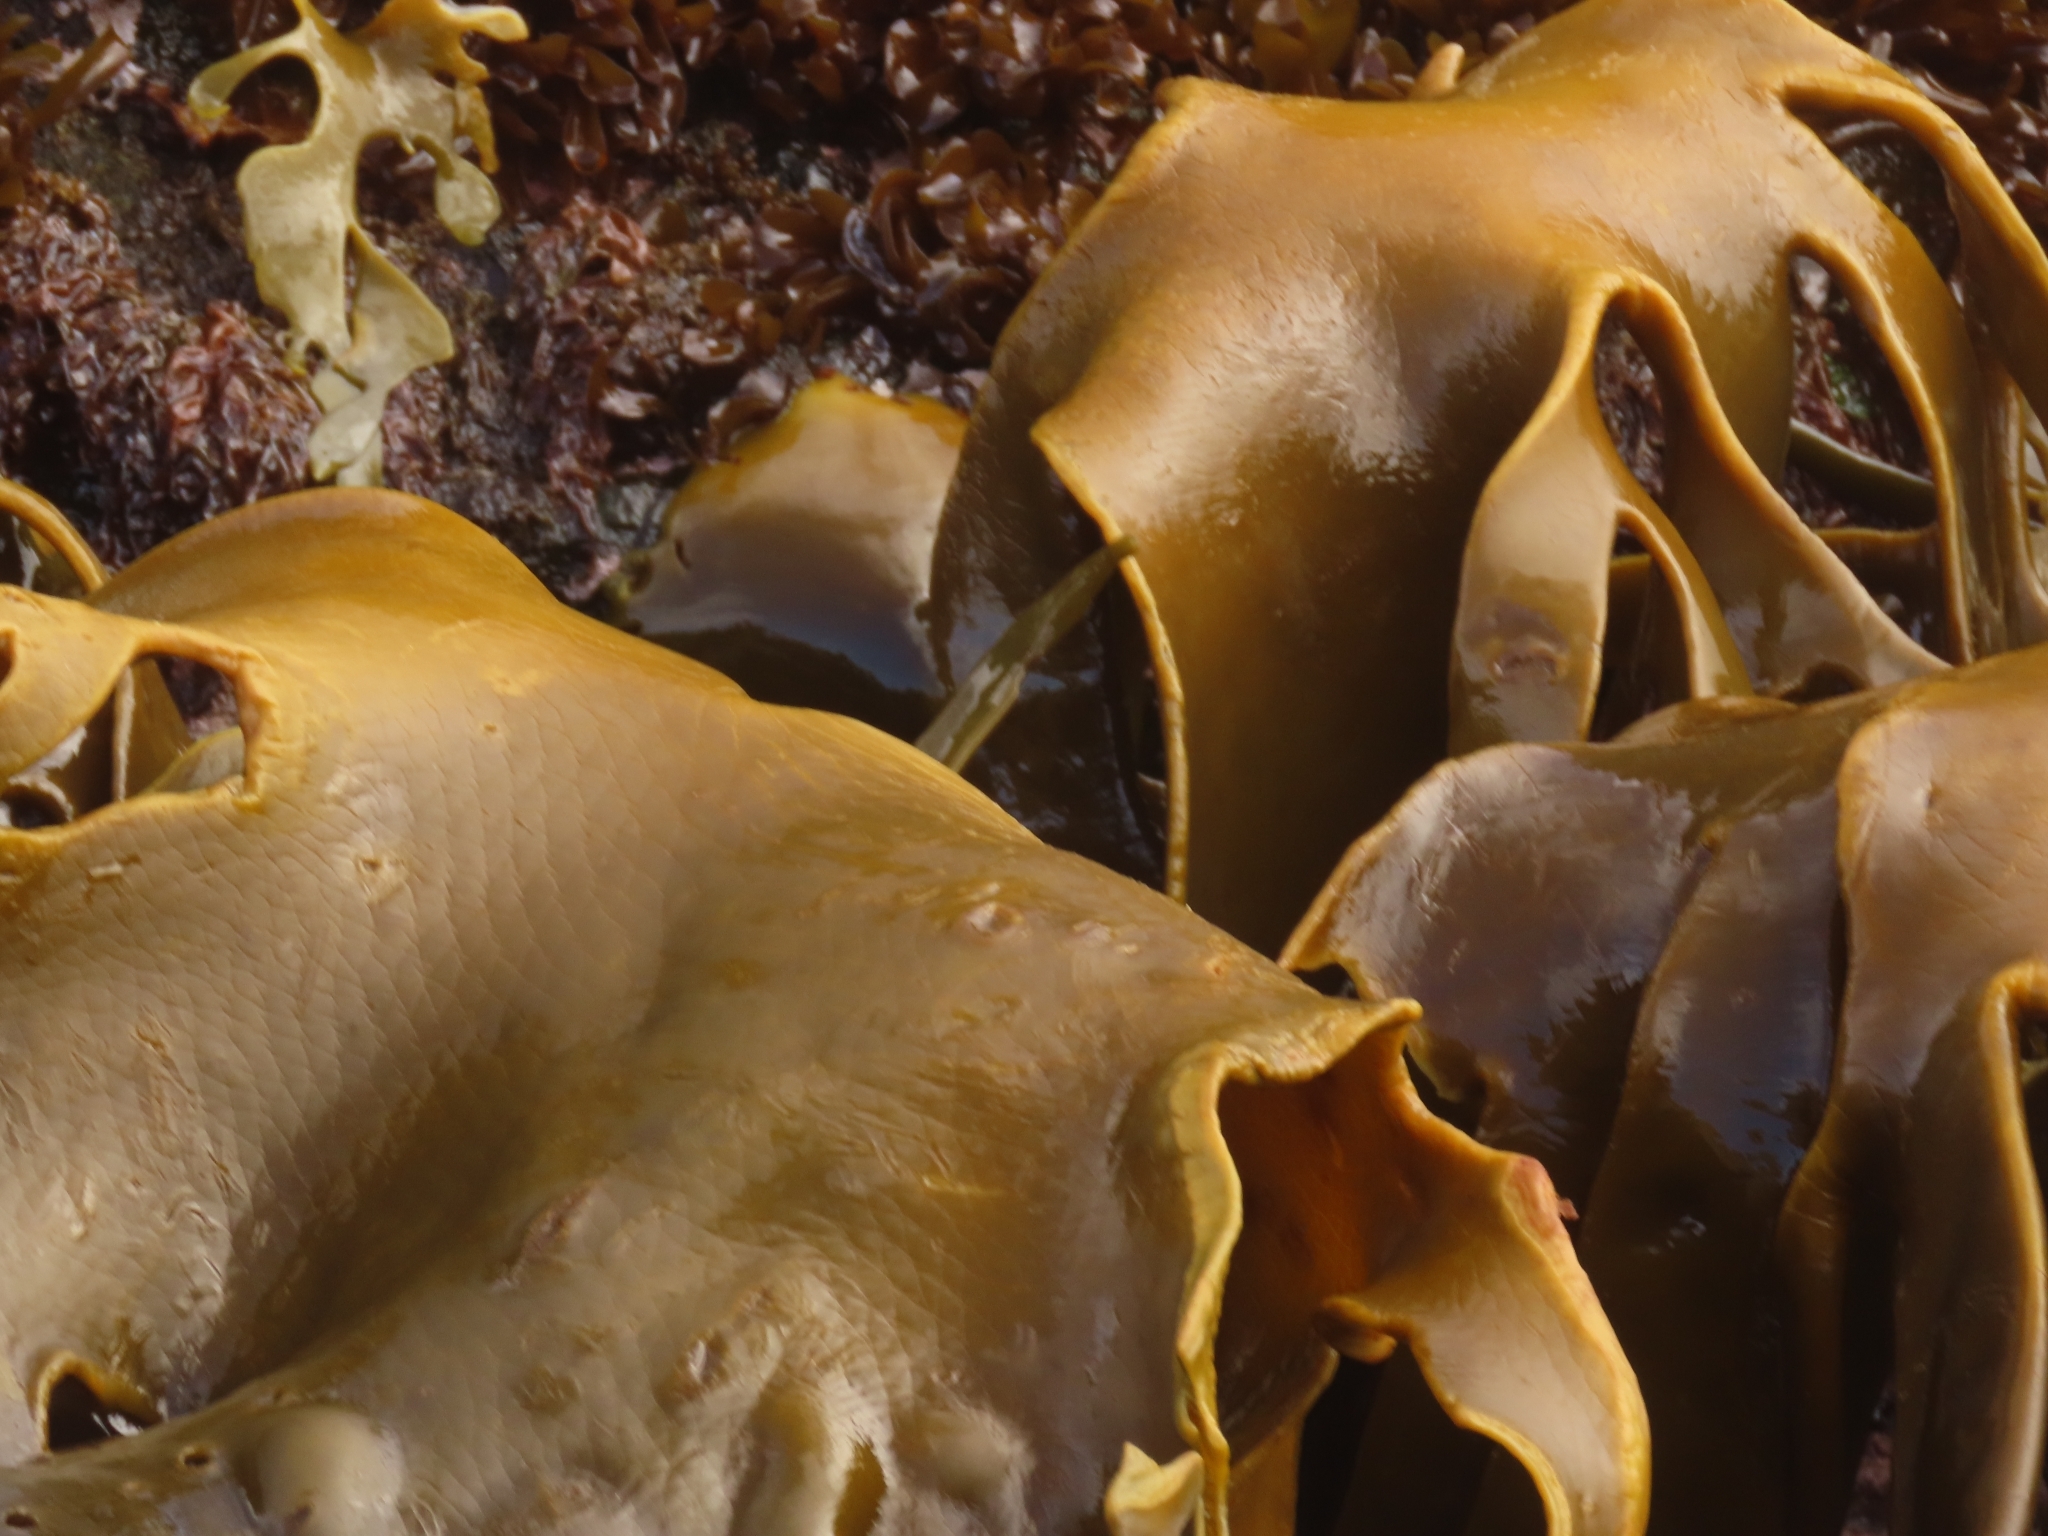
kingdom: Chromista
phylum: Ochrophyta
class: Phaeophyceae
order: Fucales
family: Durvillaeaceae
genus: Durvillaea
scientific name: Durvillaea antarctica
